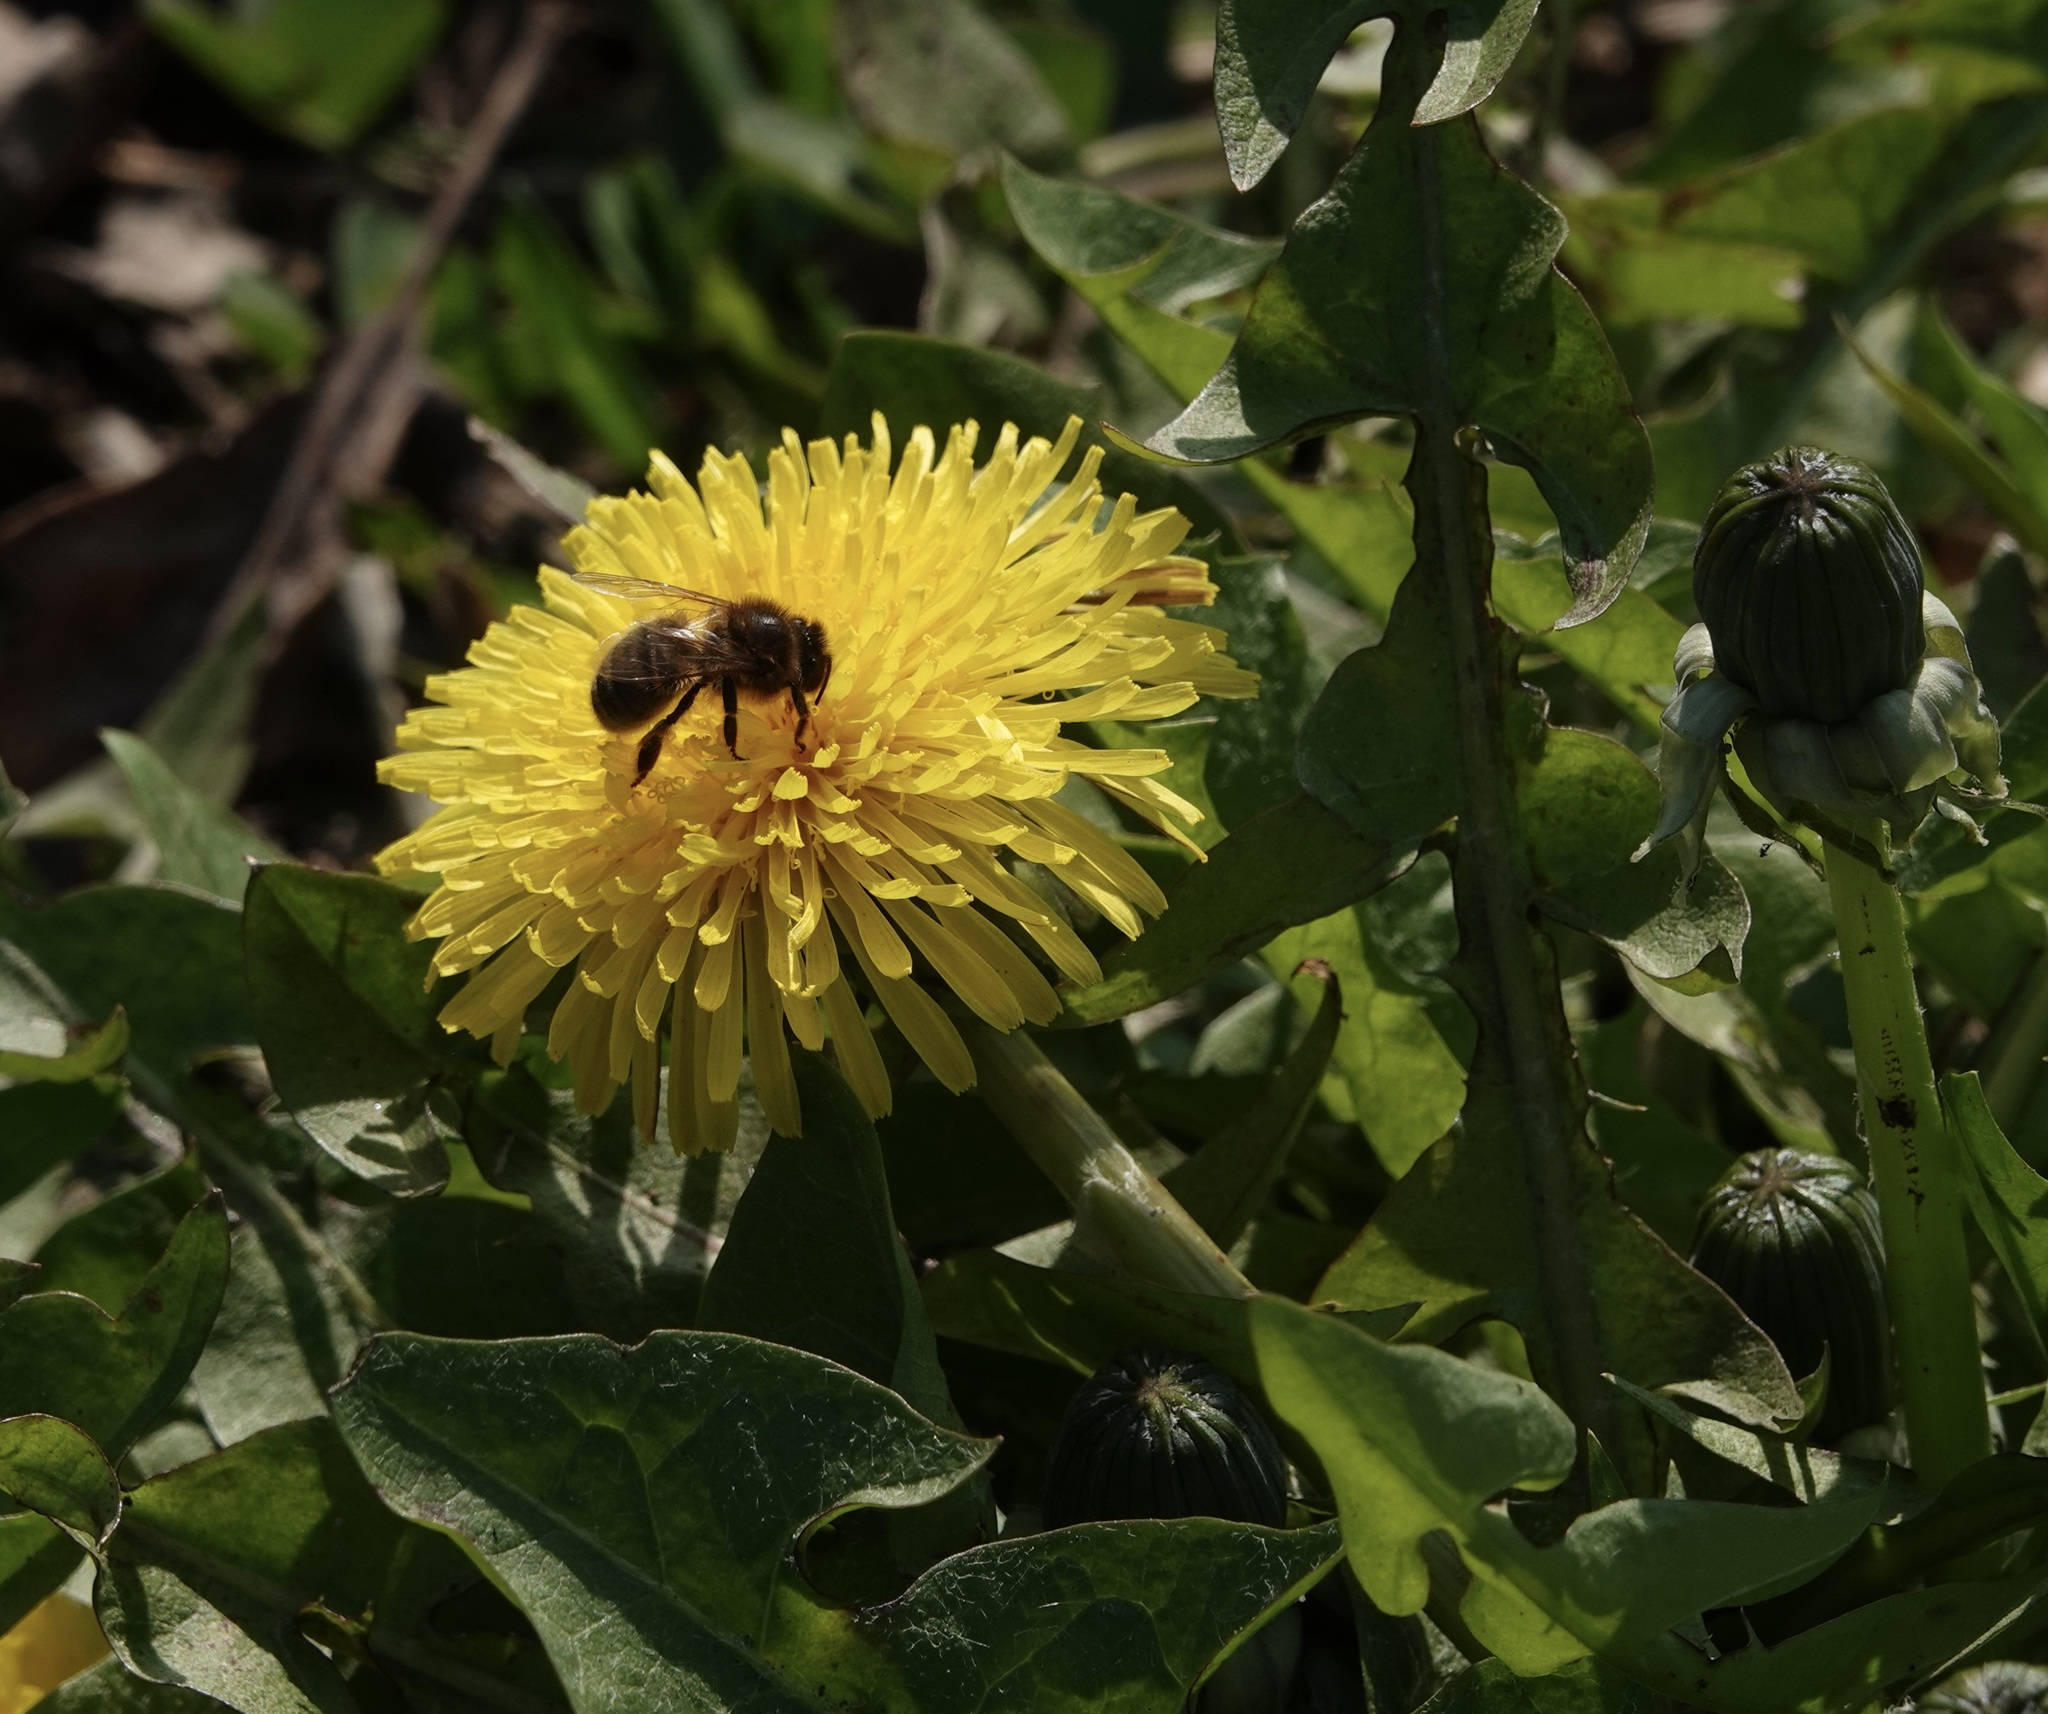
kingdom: Animalia
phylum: Arthropoda
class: Insecta
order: Hymenoptera
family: Apidae
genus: Apis
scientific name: Apis mellifera
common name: Honey bee
